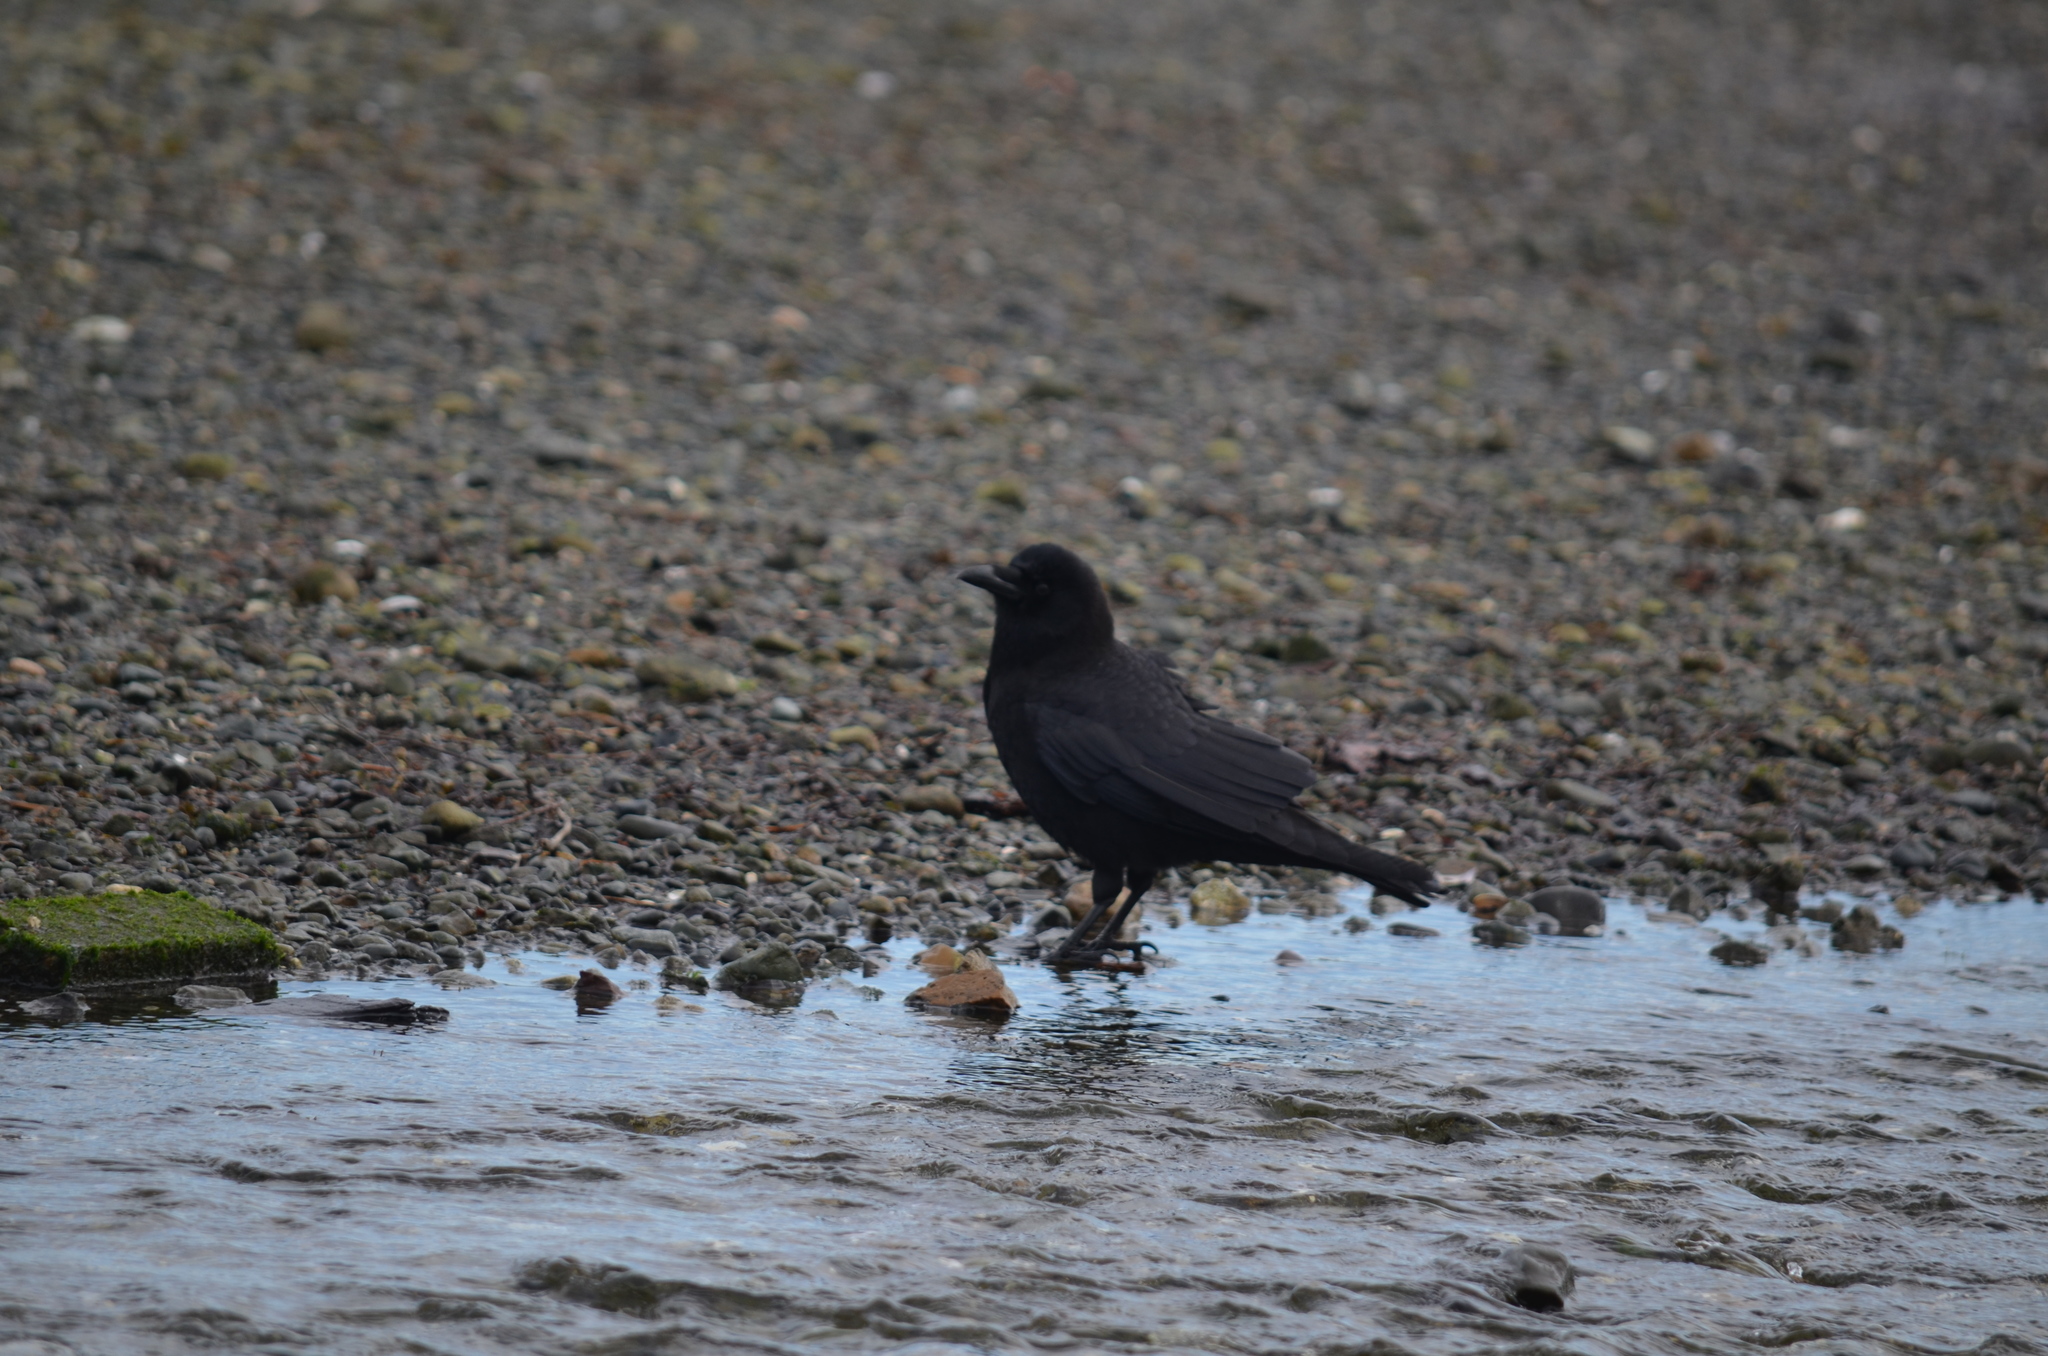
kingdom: Animalia
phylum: Chordata
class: Aves
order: Passeriformes
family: Corvidae
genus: Corvus
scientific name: Corvus brachyrhynchos
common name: American crow
